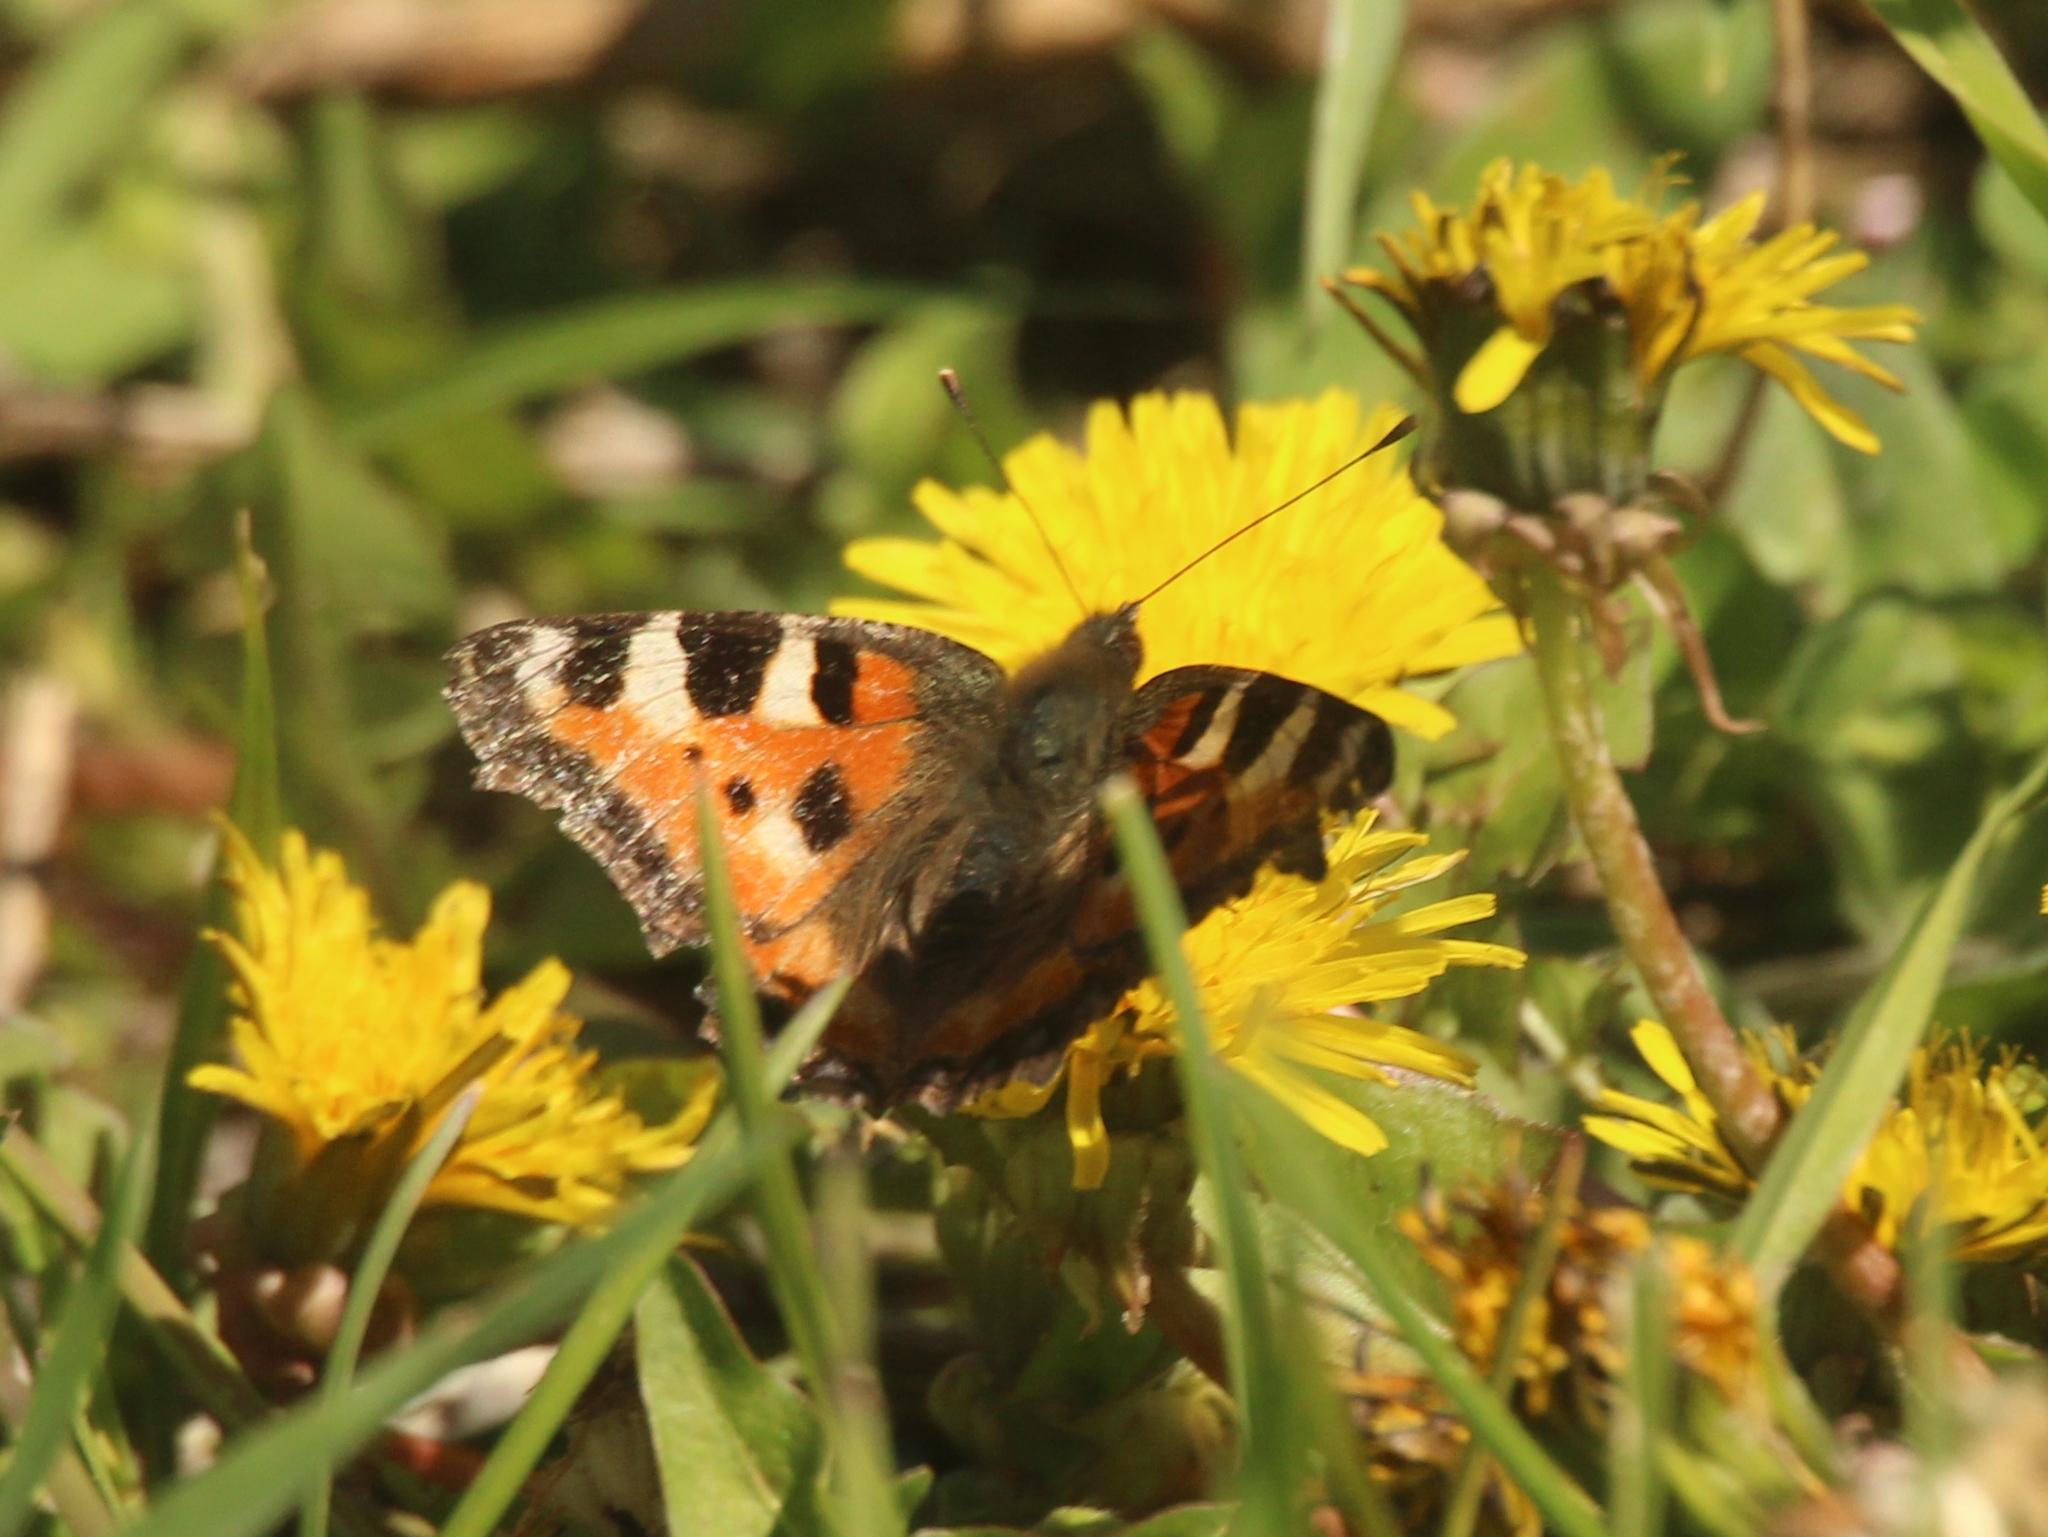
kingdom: Animalia
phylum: Arthropoda
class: Insecta
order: Lepidoptera
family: Nymphalidae
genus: Aglais
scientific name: Aglais urticae
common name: Small tortoiseshell
